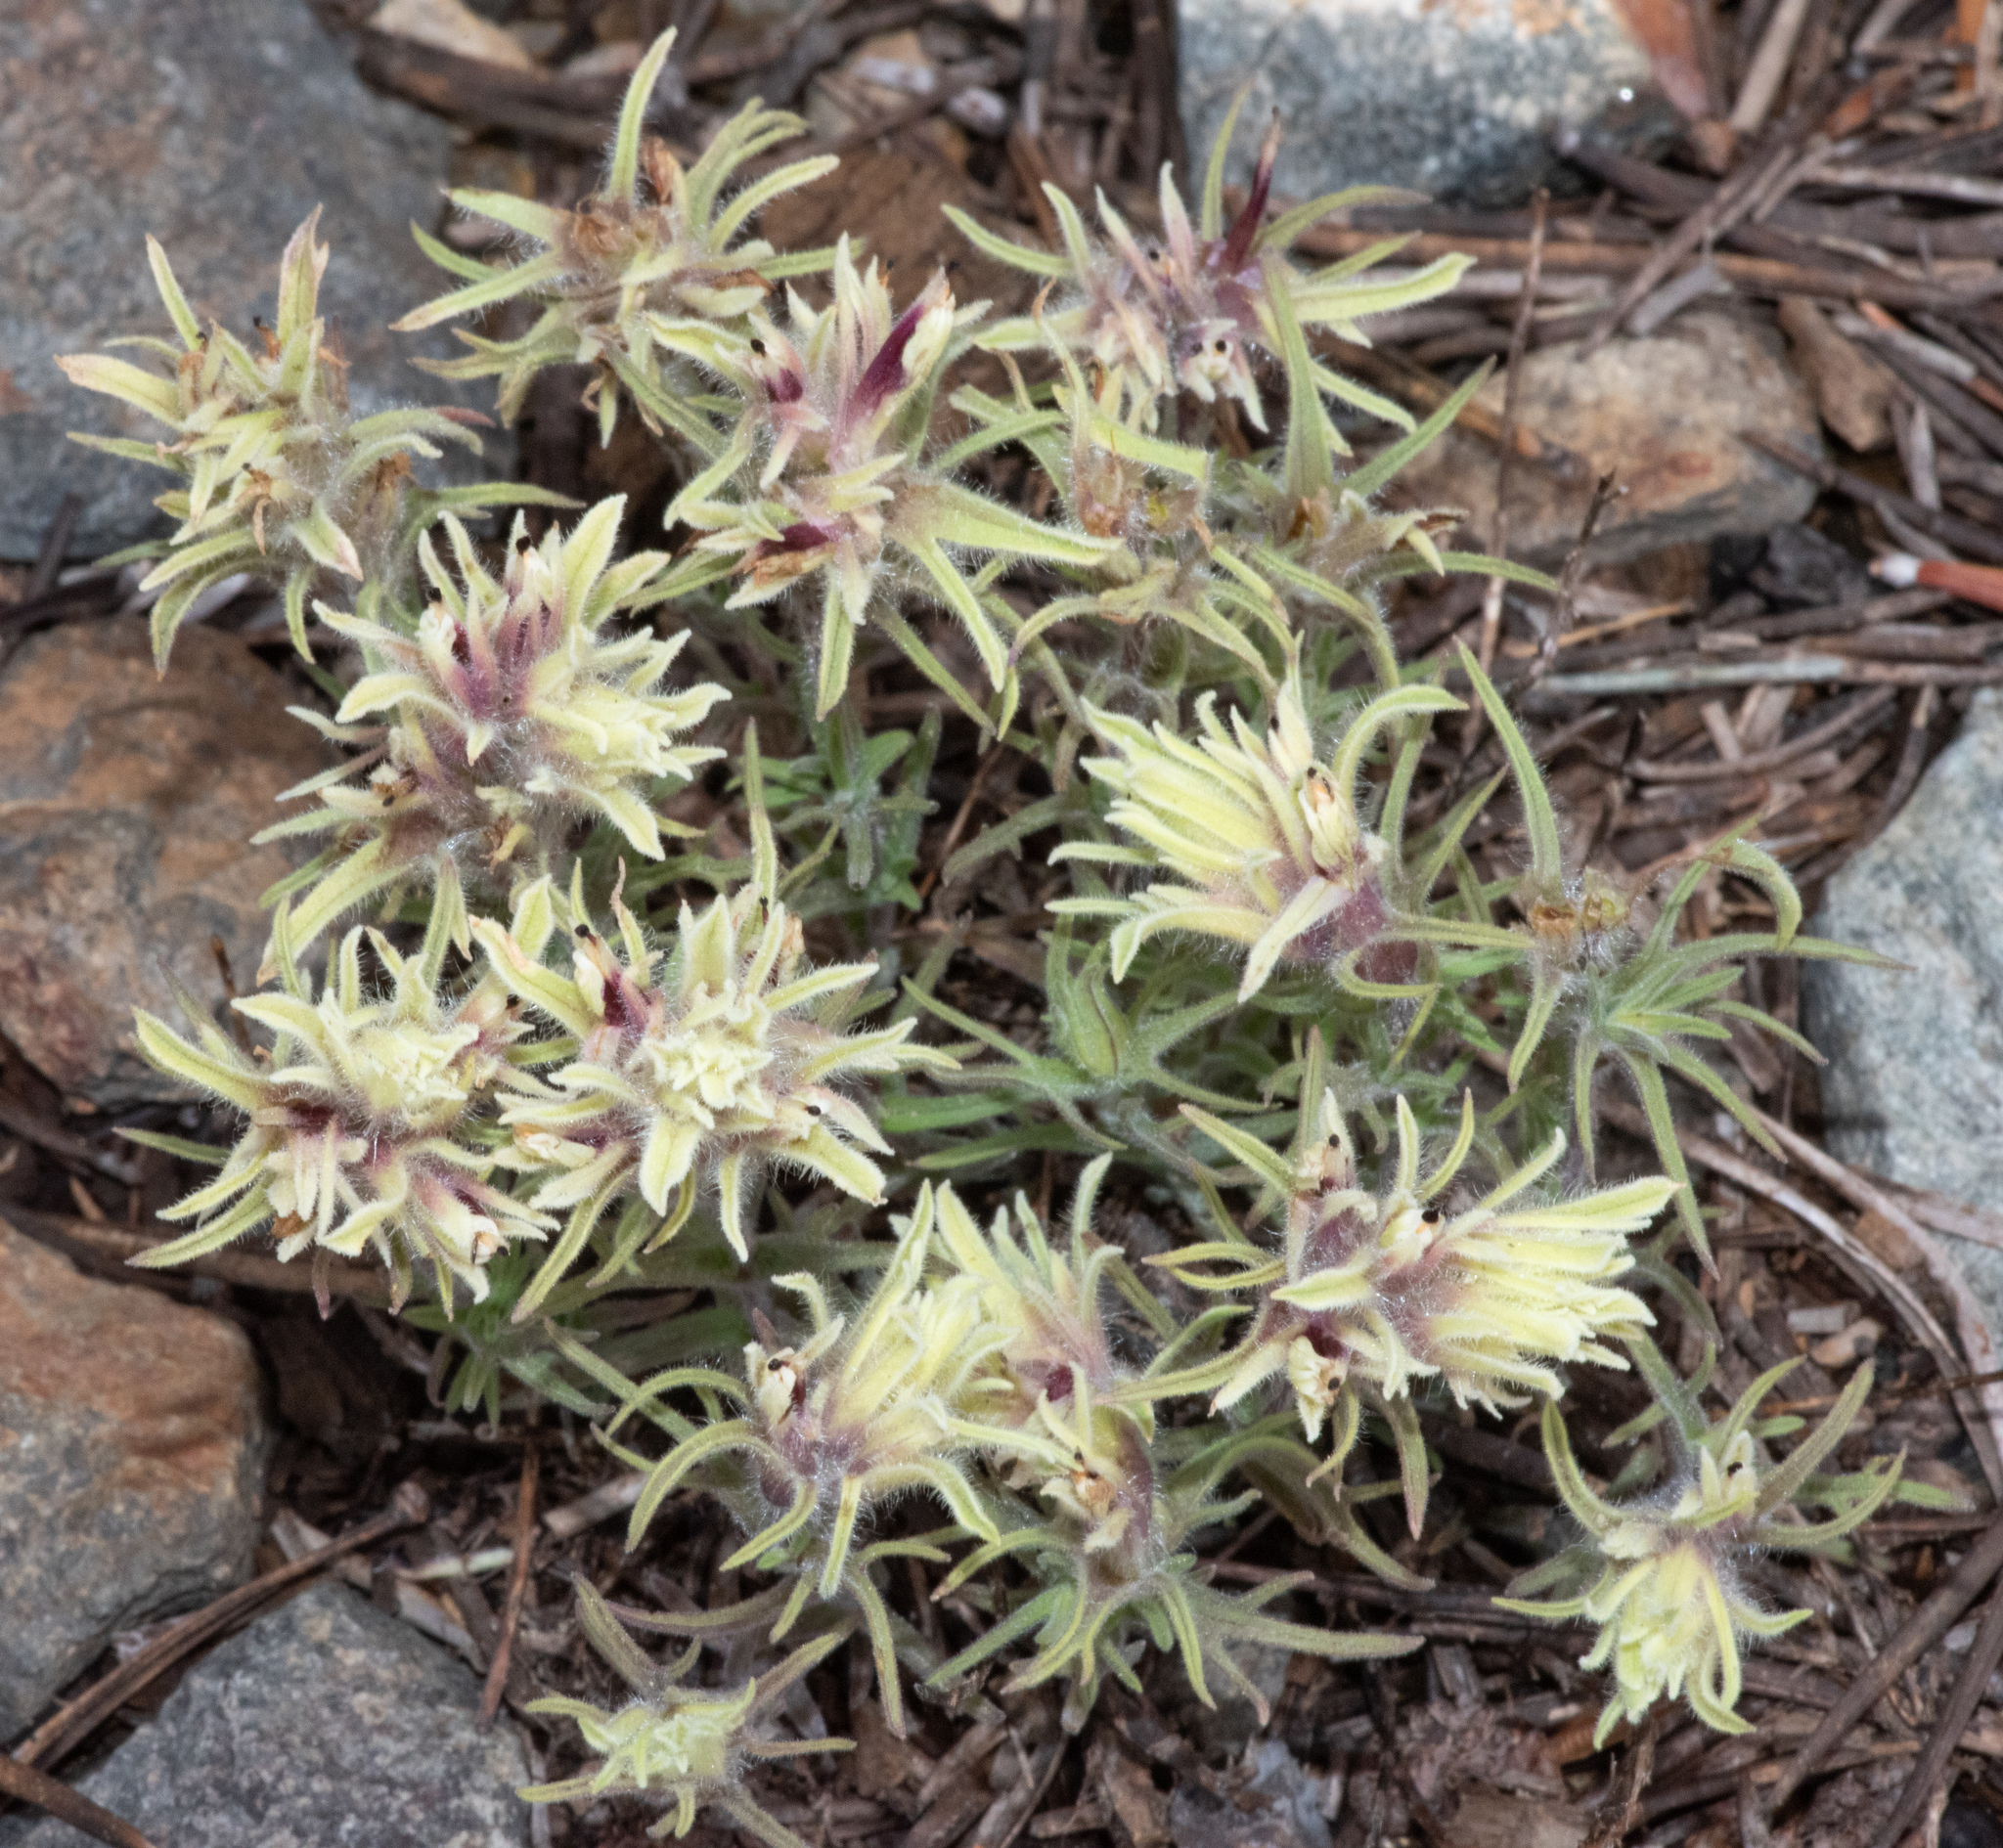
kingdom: Plantae
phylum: Tracheophyta
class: Magnoliopsida
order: Lamiales
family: Orobanchaceae
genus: Castilleja
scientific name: Castilleja nana
